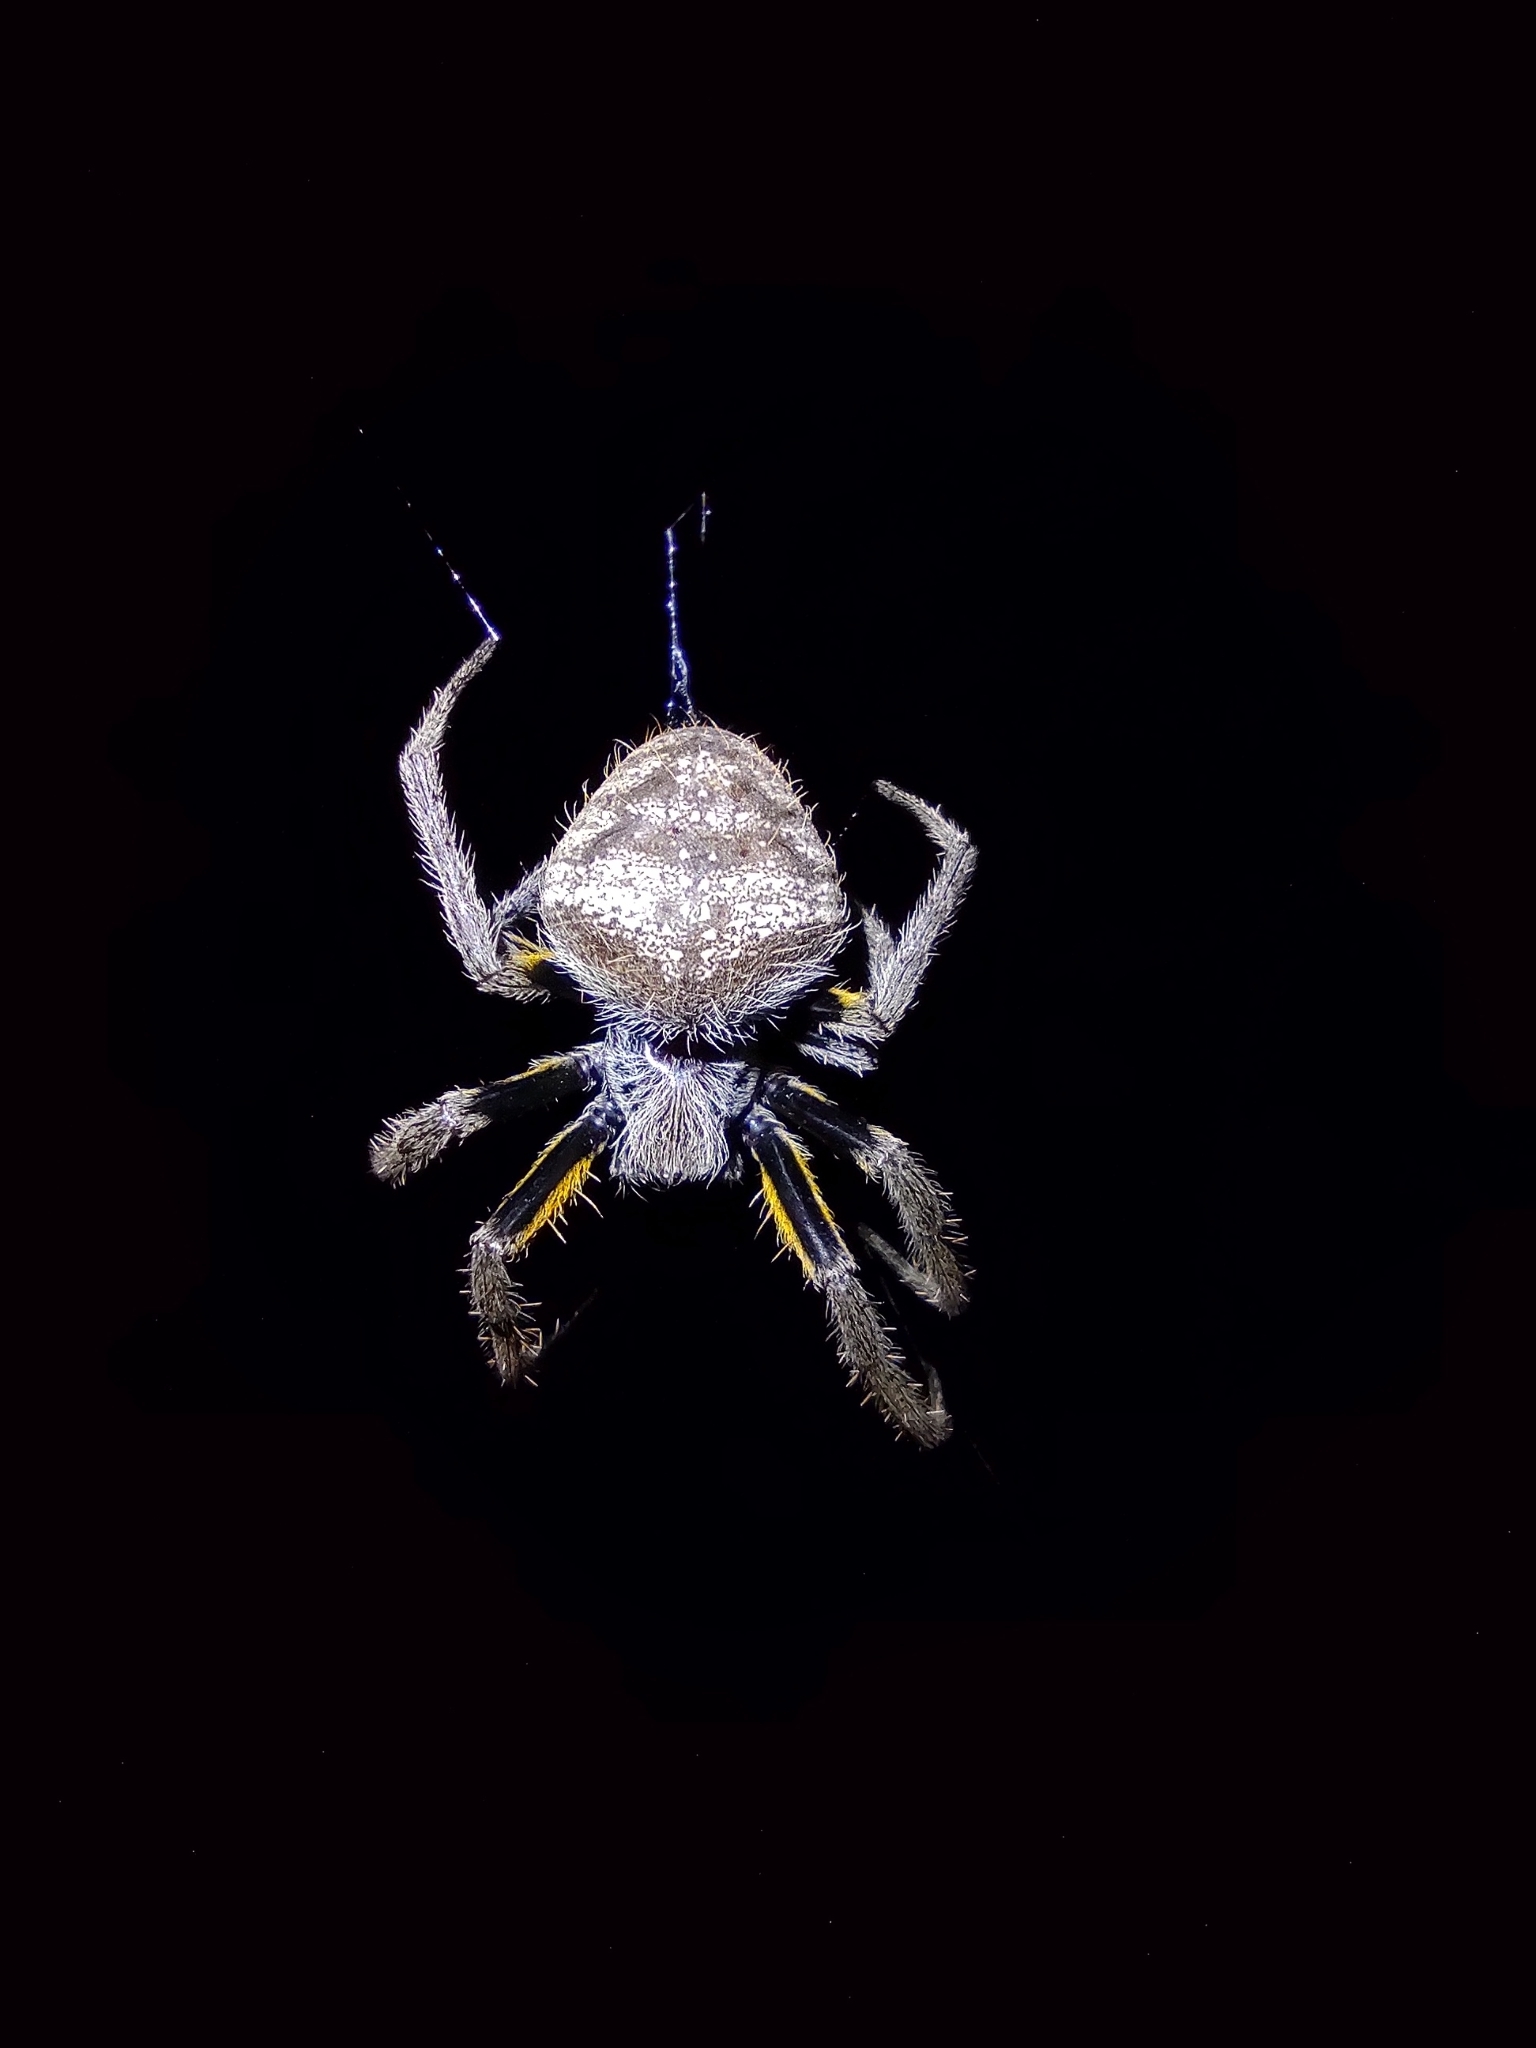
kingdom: Animalia
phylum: Arthropoda
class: Arachnida
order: Araneae
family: Araneidae
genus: Eriophora
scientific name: Eriophora ravilla
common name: Orb weavers
